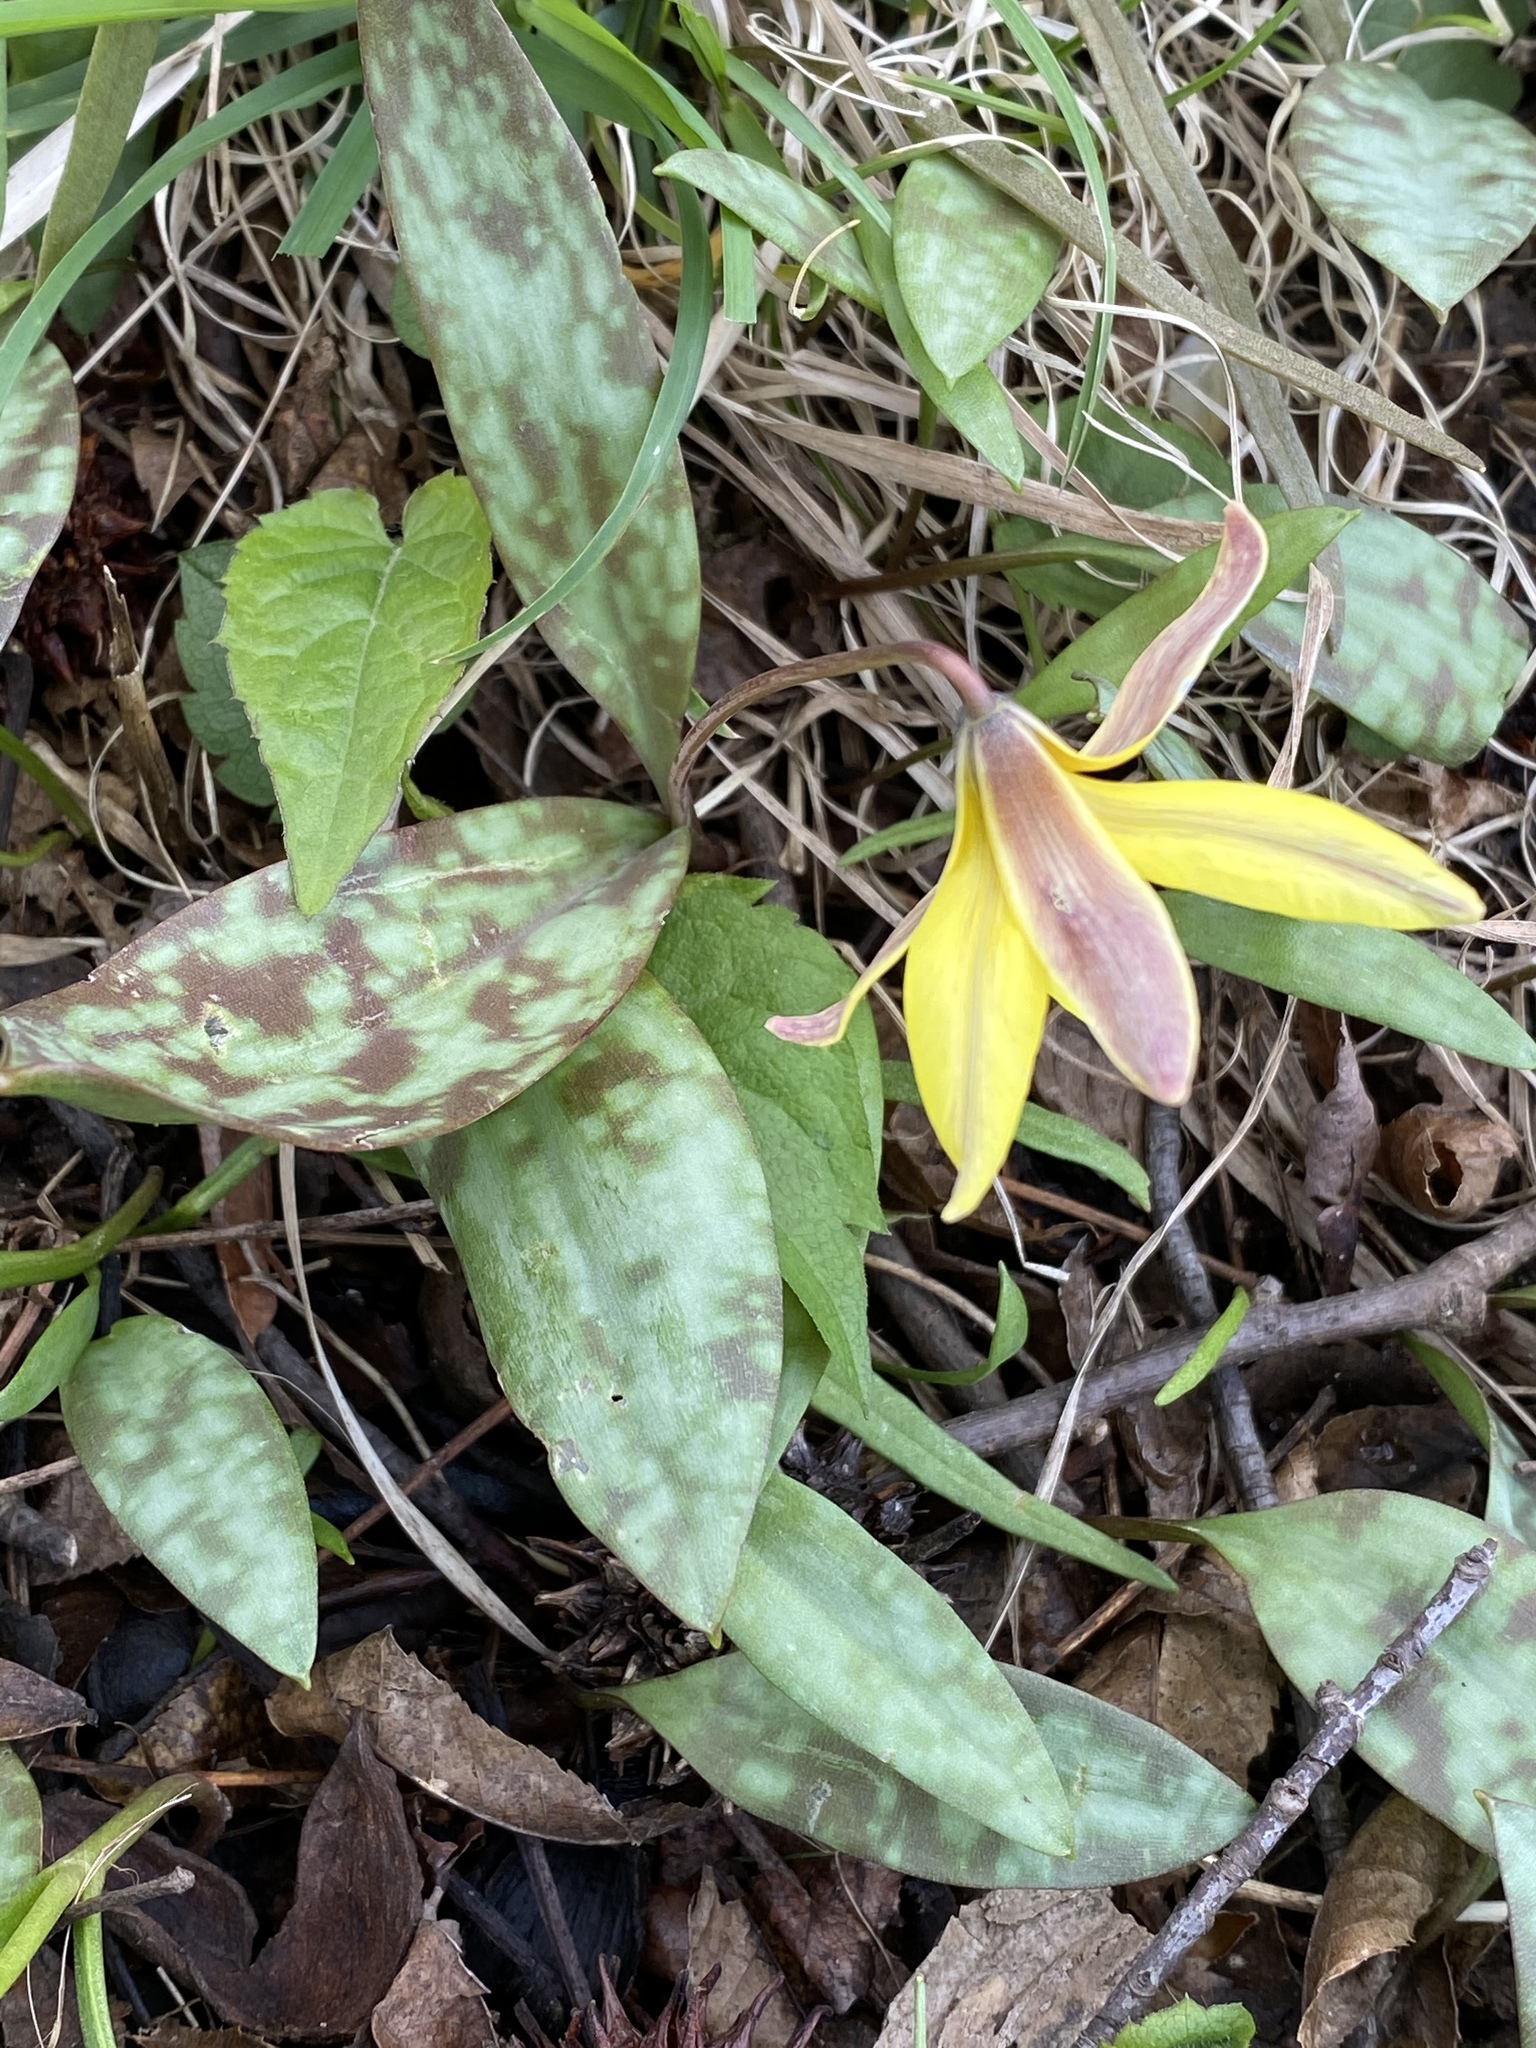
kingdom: Plantae
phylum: Tracheophyta
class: Liliopsida
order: Liliales
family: Liliaceae
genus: Erythronium
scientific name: Erythronium americanum
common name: Yellow adder's-tongue
